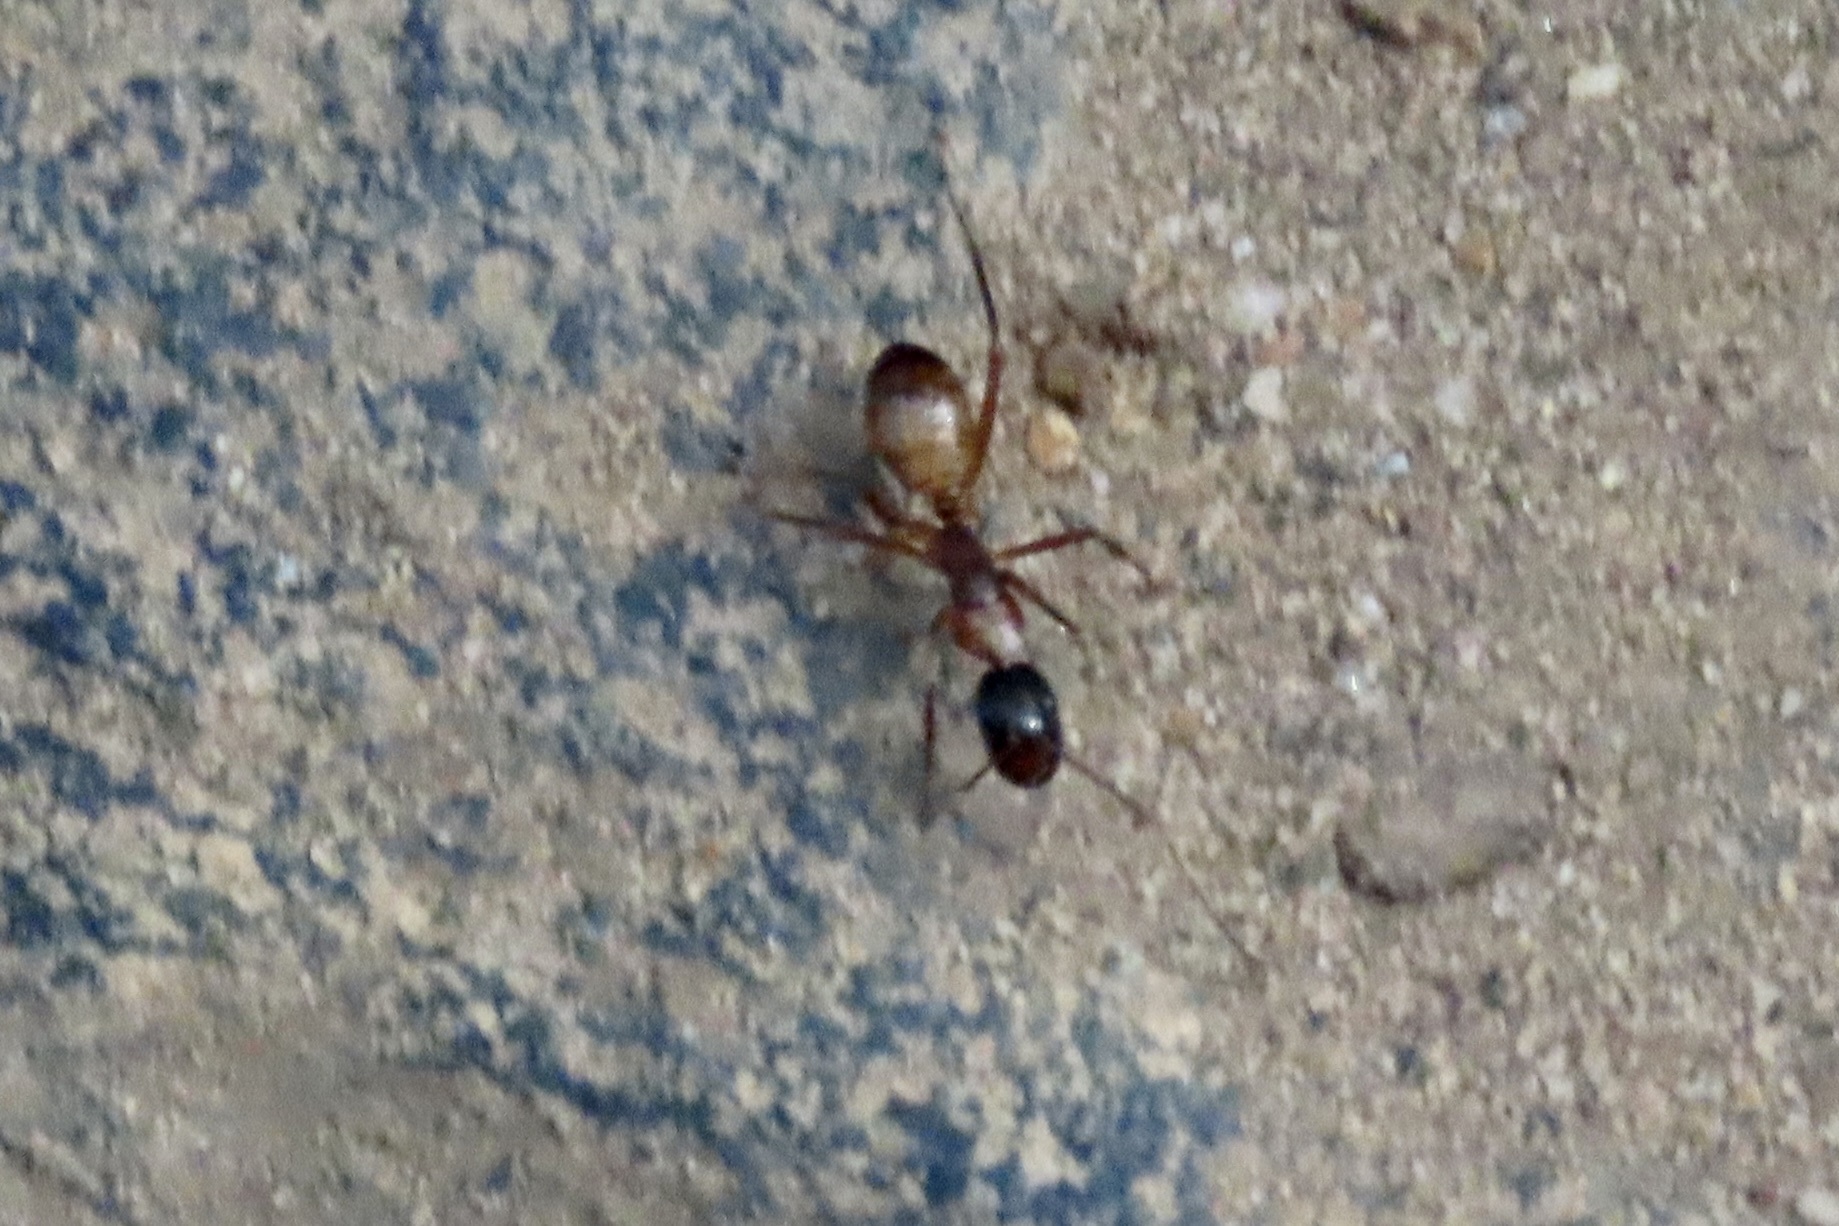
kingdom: Animalia
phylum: Arthropoda
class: Insecta
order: Hymenoptera
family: Formicidae
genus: Camponotus
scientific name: Camponotus americanus
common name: American carpenter ant
